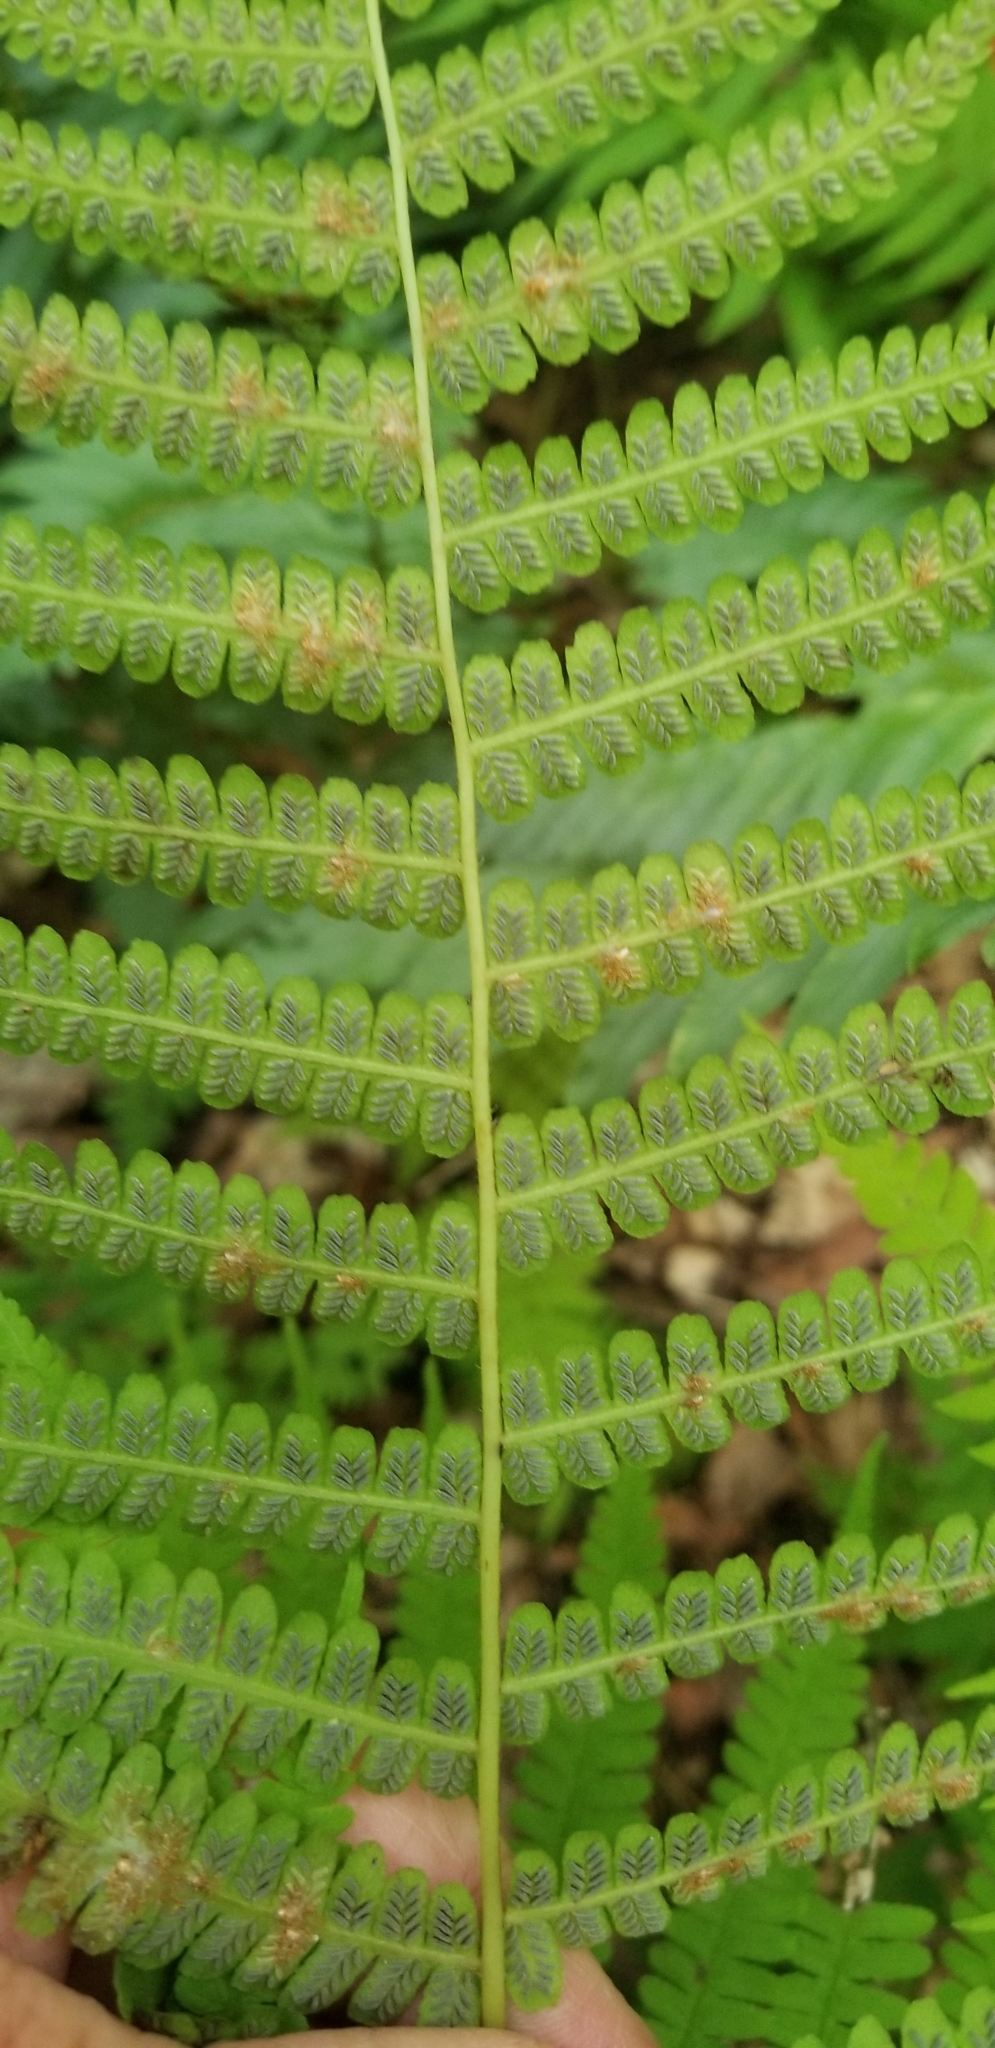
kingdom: Plantae
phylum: Tracheophyta
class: Polypodiopsida
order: Polypodiales
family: Athyriaceae
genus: Deparia
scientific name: Deparia acrostichoides
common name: Silver false spleenwort
